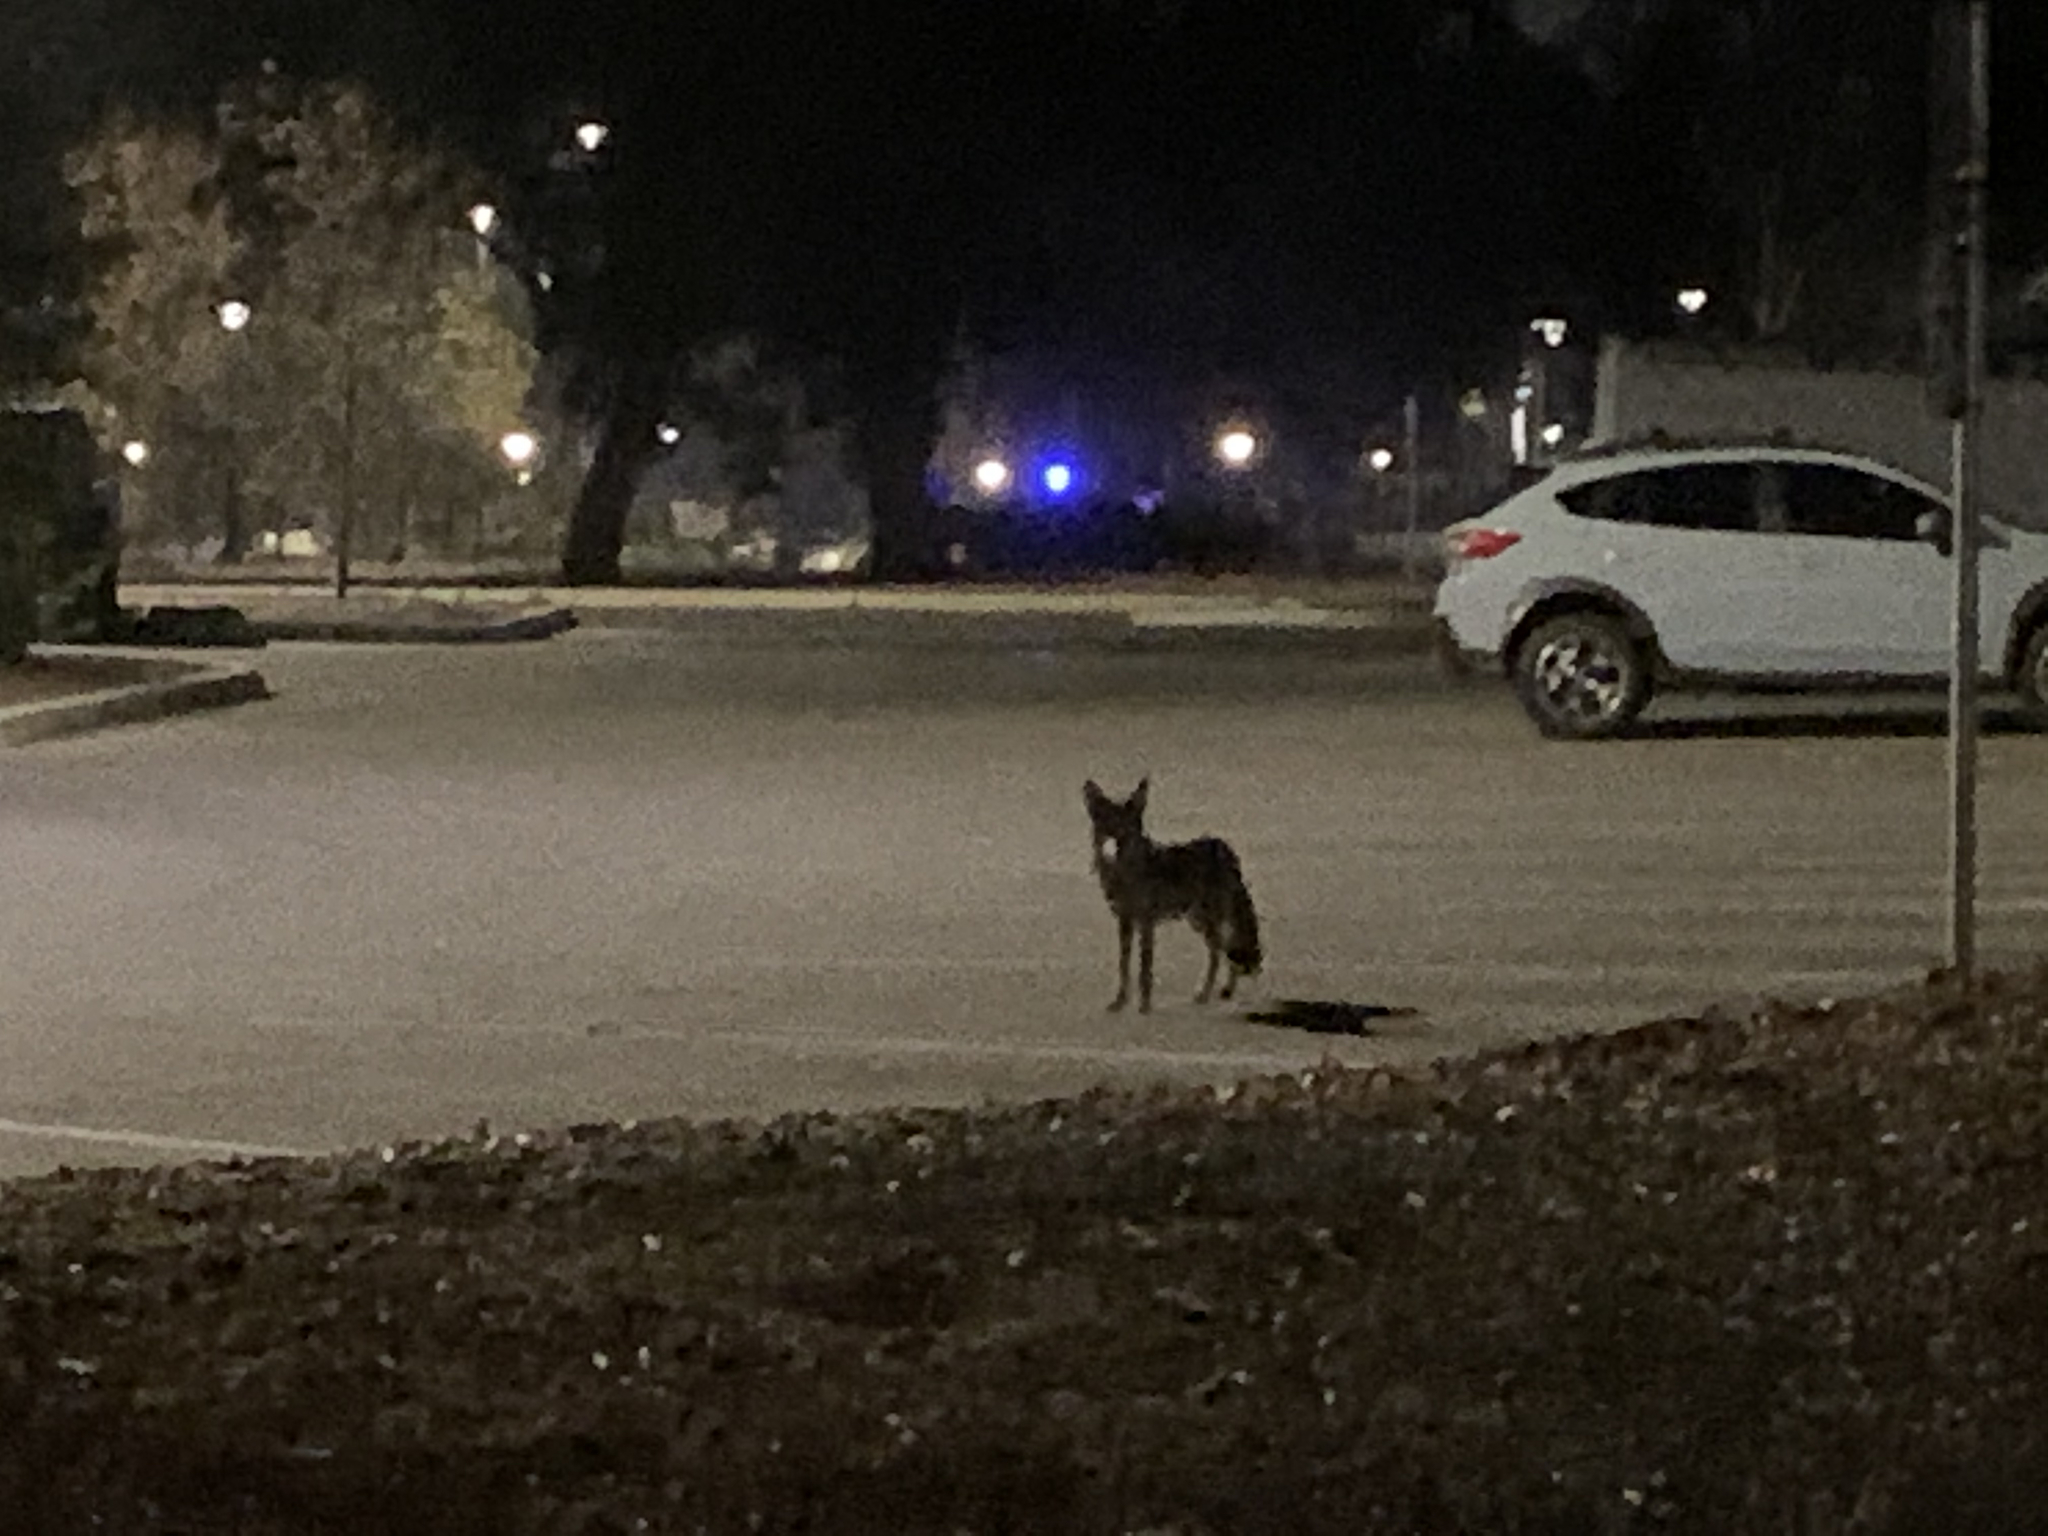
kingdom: Animalia
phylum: Chordata
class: Mammalia
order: Carnivora
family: Canidae
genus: Canis
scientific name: Canis latrans
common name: Coyote
